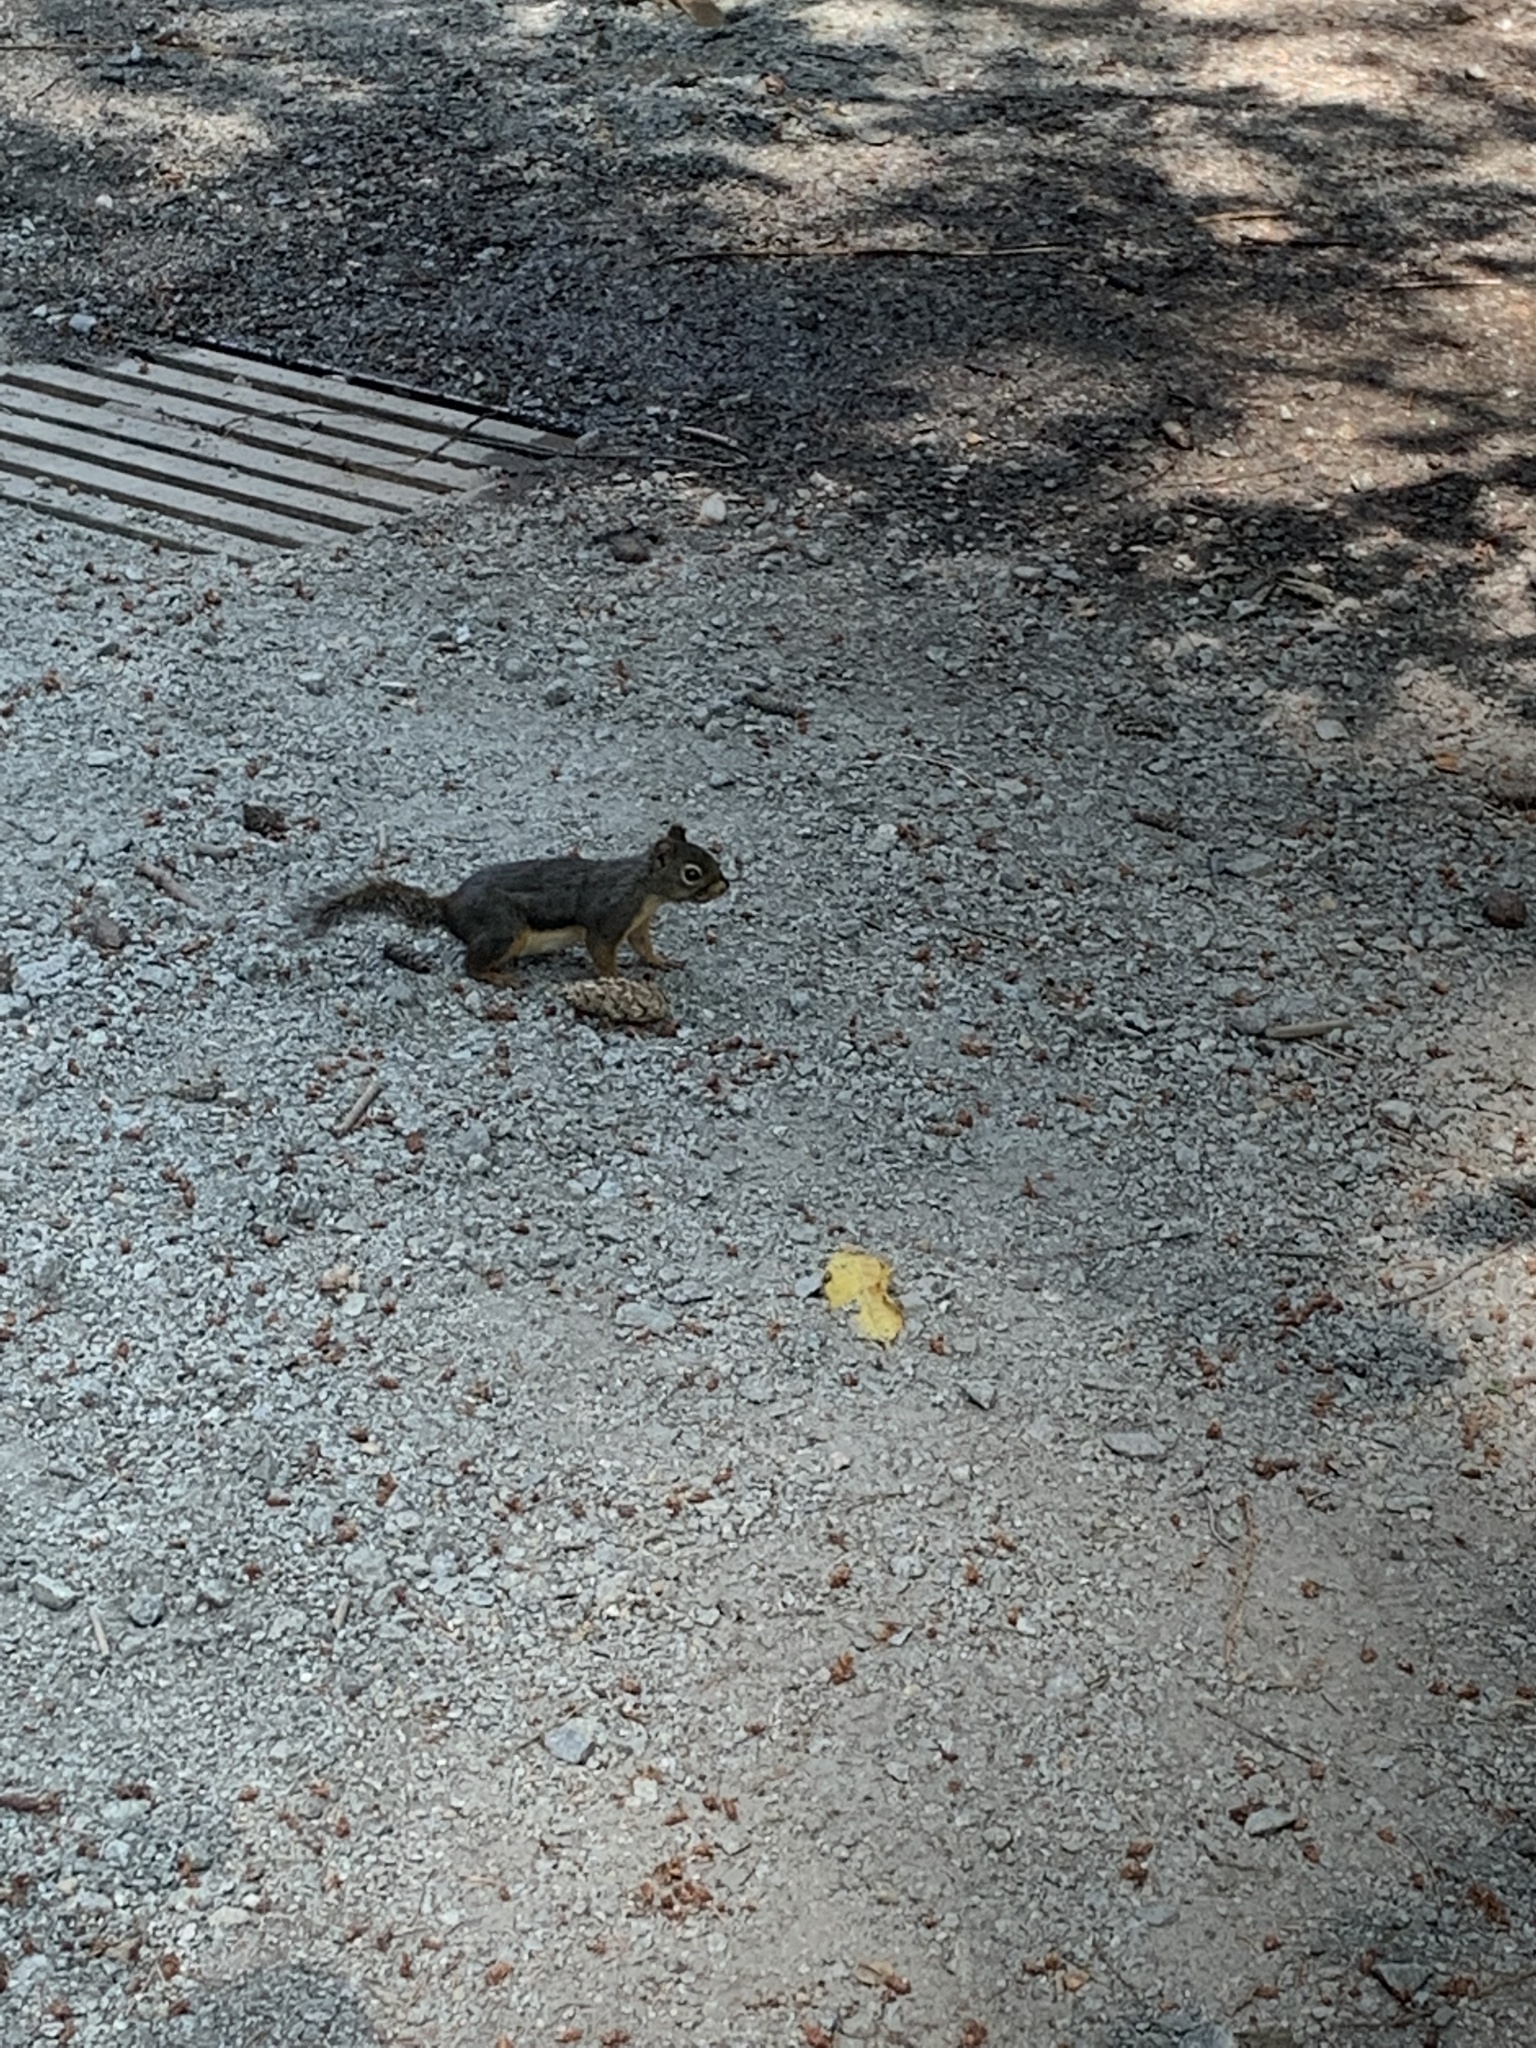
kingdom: Animalia
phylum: Chordata
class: Mammalia
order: Rodentia
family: Sciuridae
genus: Tamiasciurus
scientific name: Tamiasciurus douglasii
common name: Douglas's squirrel
